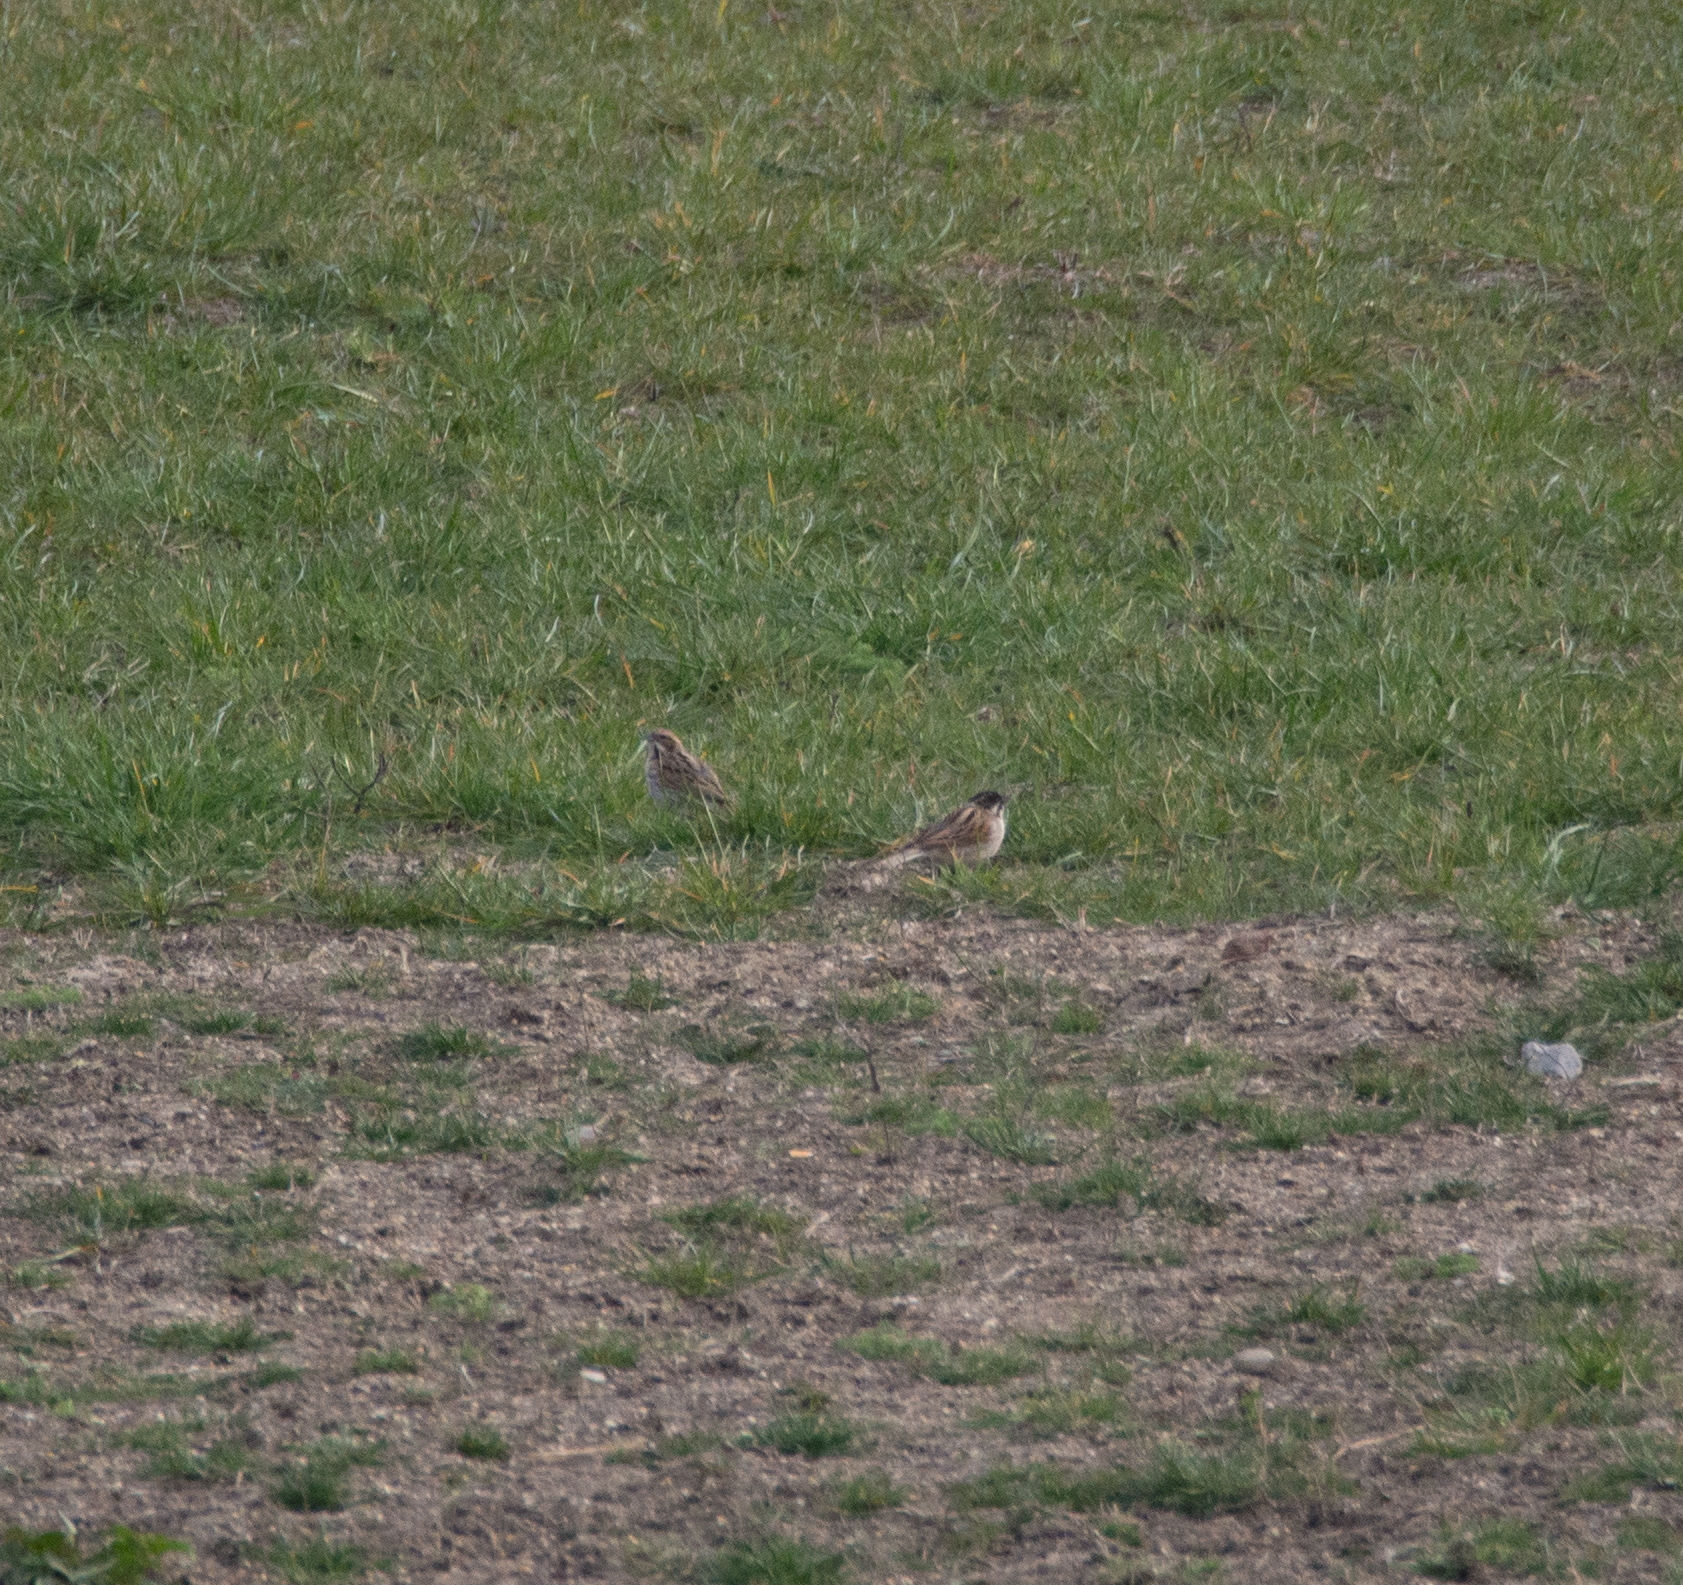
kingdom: Animalia
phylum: Chordata
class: Aves
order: Passeriformes
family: Emberizidae
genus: Emberiza
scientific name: Emberiza schoeniclus
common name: Reed bunting
